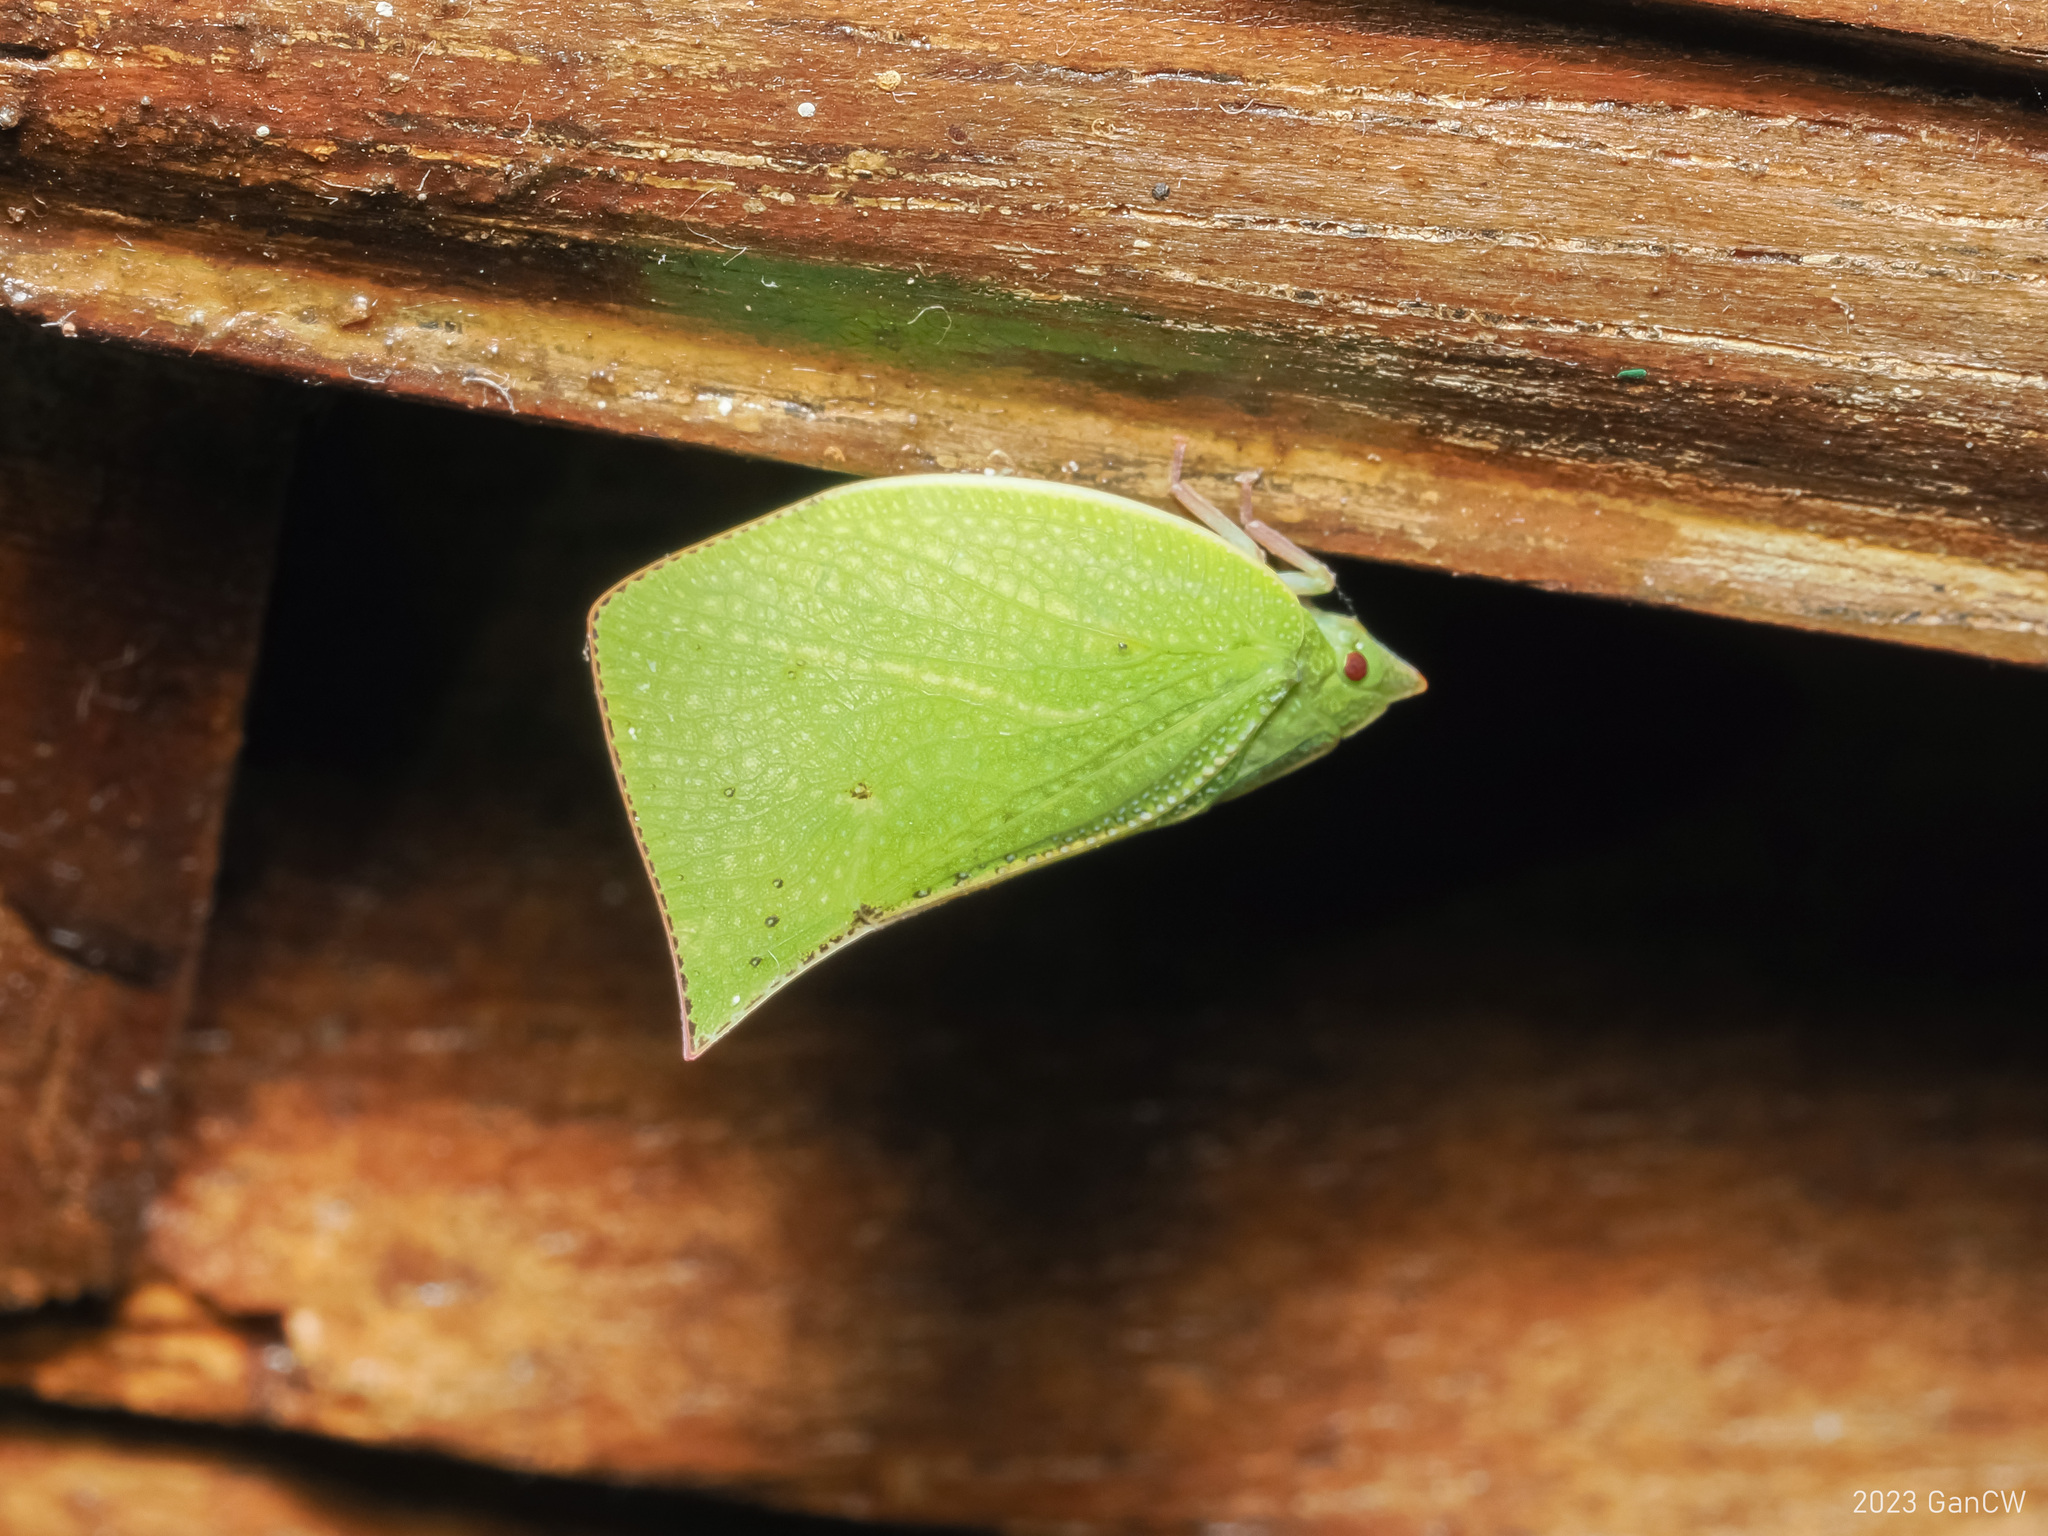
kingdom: Animalia
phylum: Arthropoda
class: Insecta
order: Hemiptera
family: Flatidae
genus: Phyllyphanta
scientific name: Phyllyphanta producta
